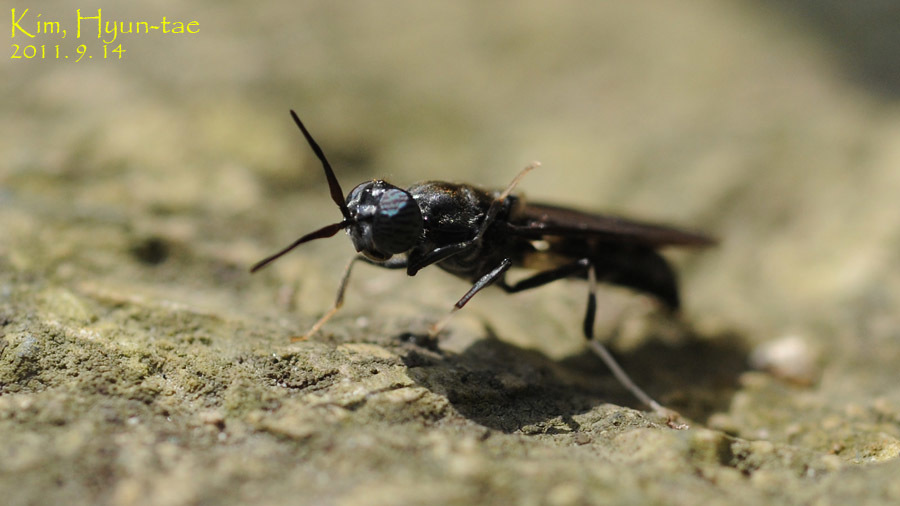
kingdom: Animalia
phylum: Arthropoda
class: Insecta
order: Diptera
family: Stratiomyidae
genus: Hermetia
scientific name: Hermetia illucens
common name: Black soldier fly
